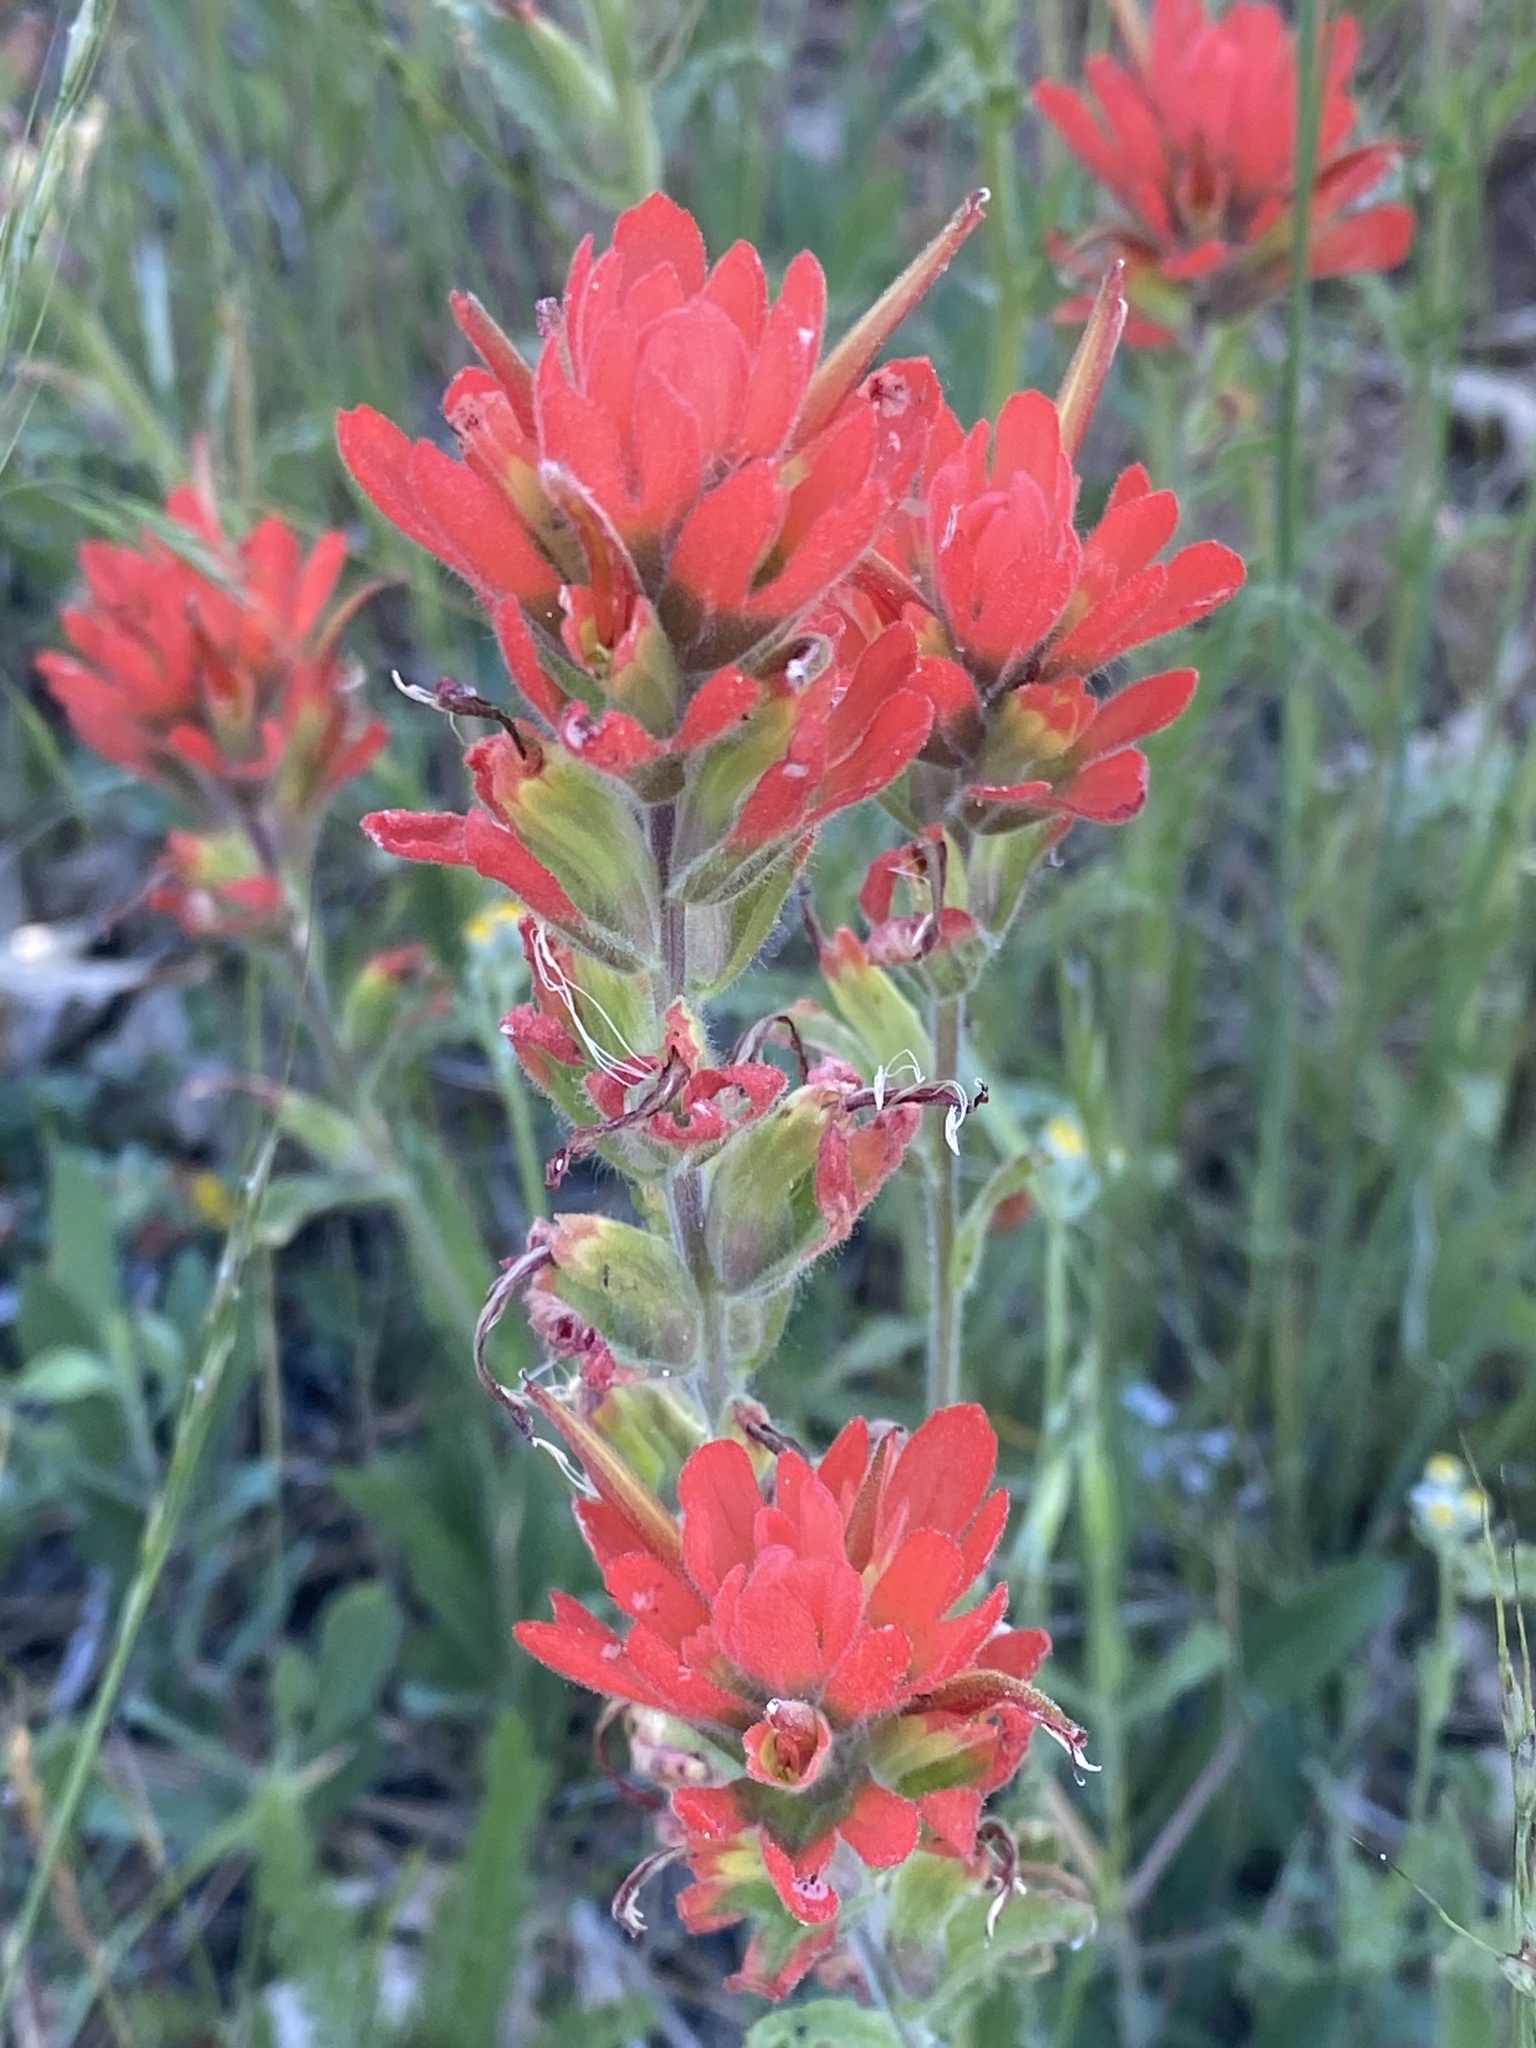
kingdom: Plantae
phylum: Tracheophyta
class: Magnoliopsida
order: Lamiales
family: Orobanchaceae
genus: Castilleja
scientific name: Castilleja martini
